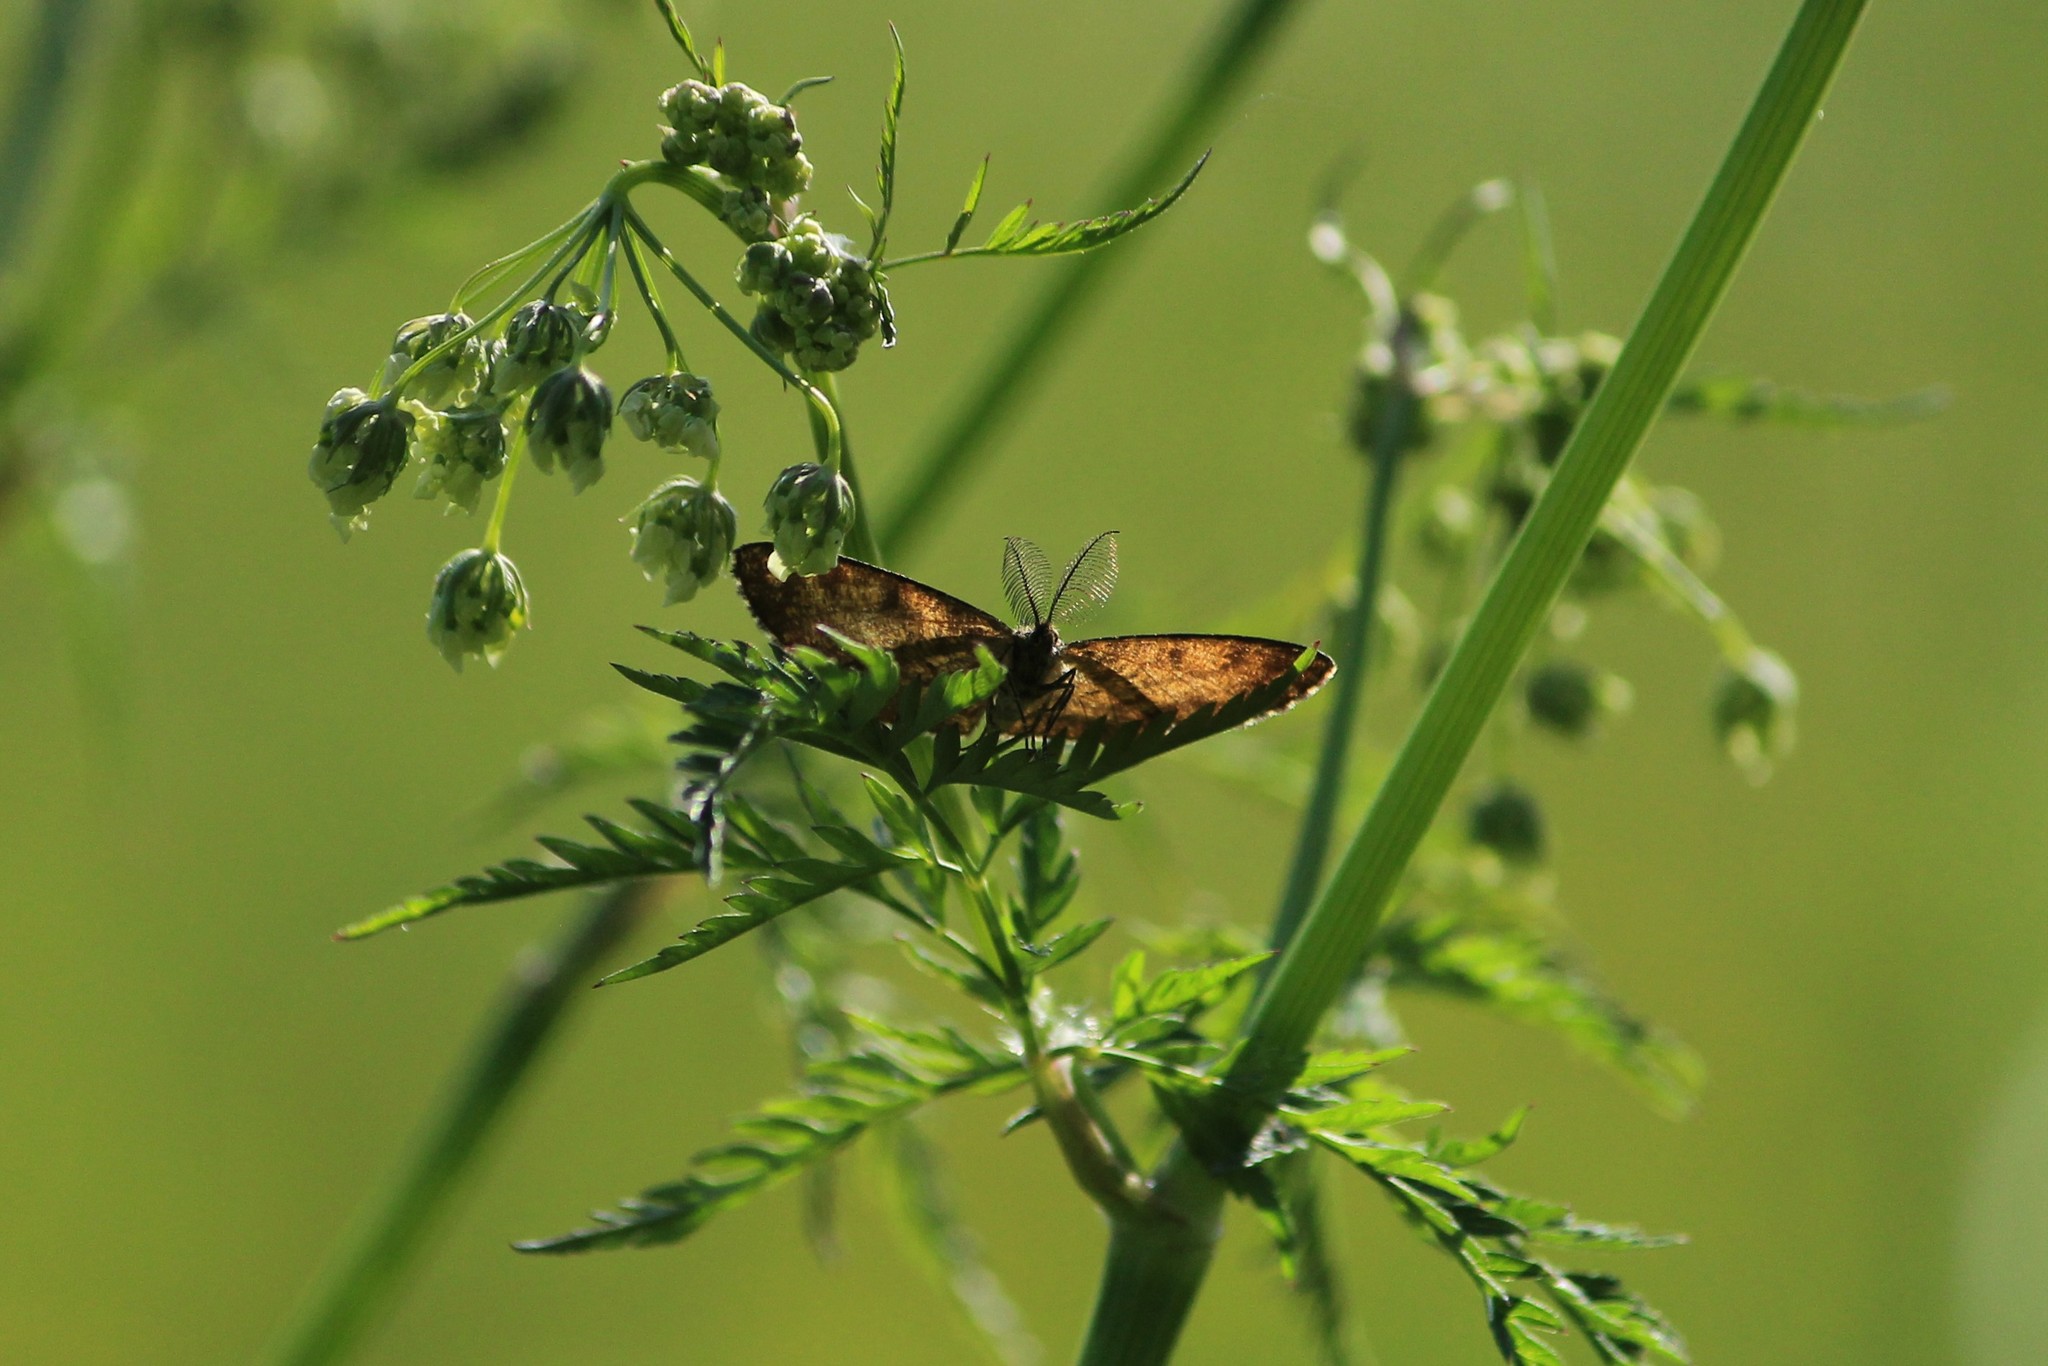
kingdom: Animalia
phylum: Arthropoda
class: Insecta
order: Lepidoptera
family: Geometridae
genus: Ematurga
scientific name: Ematurga atomaria
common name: Common heath
